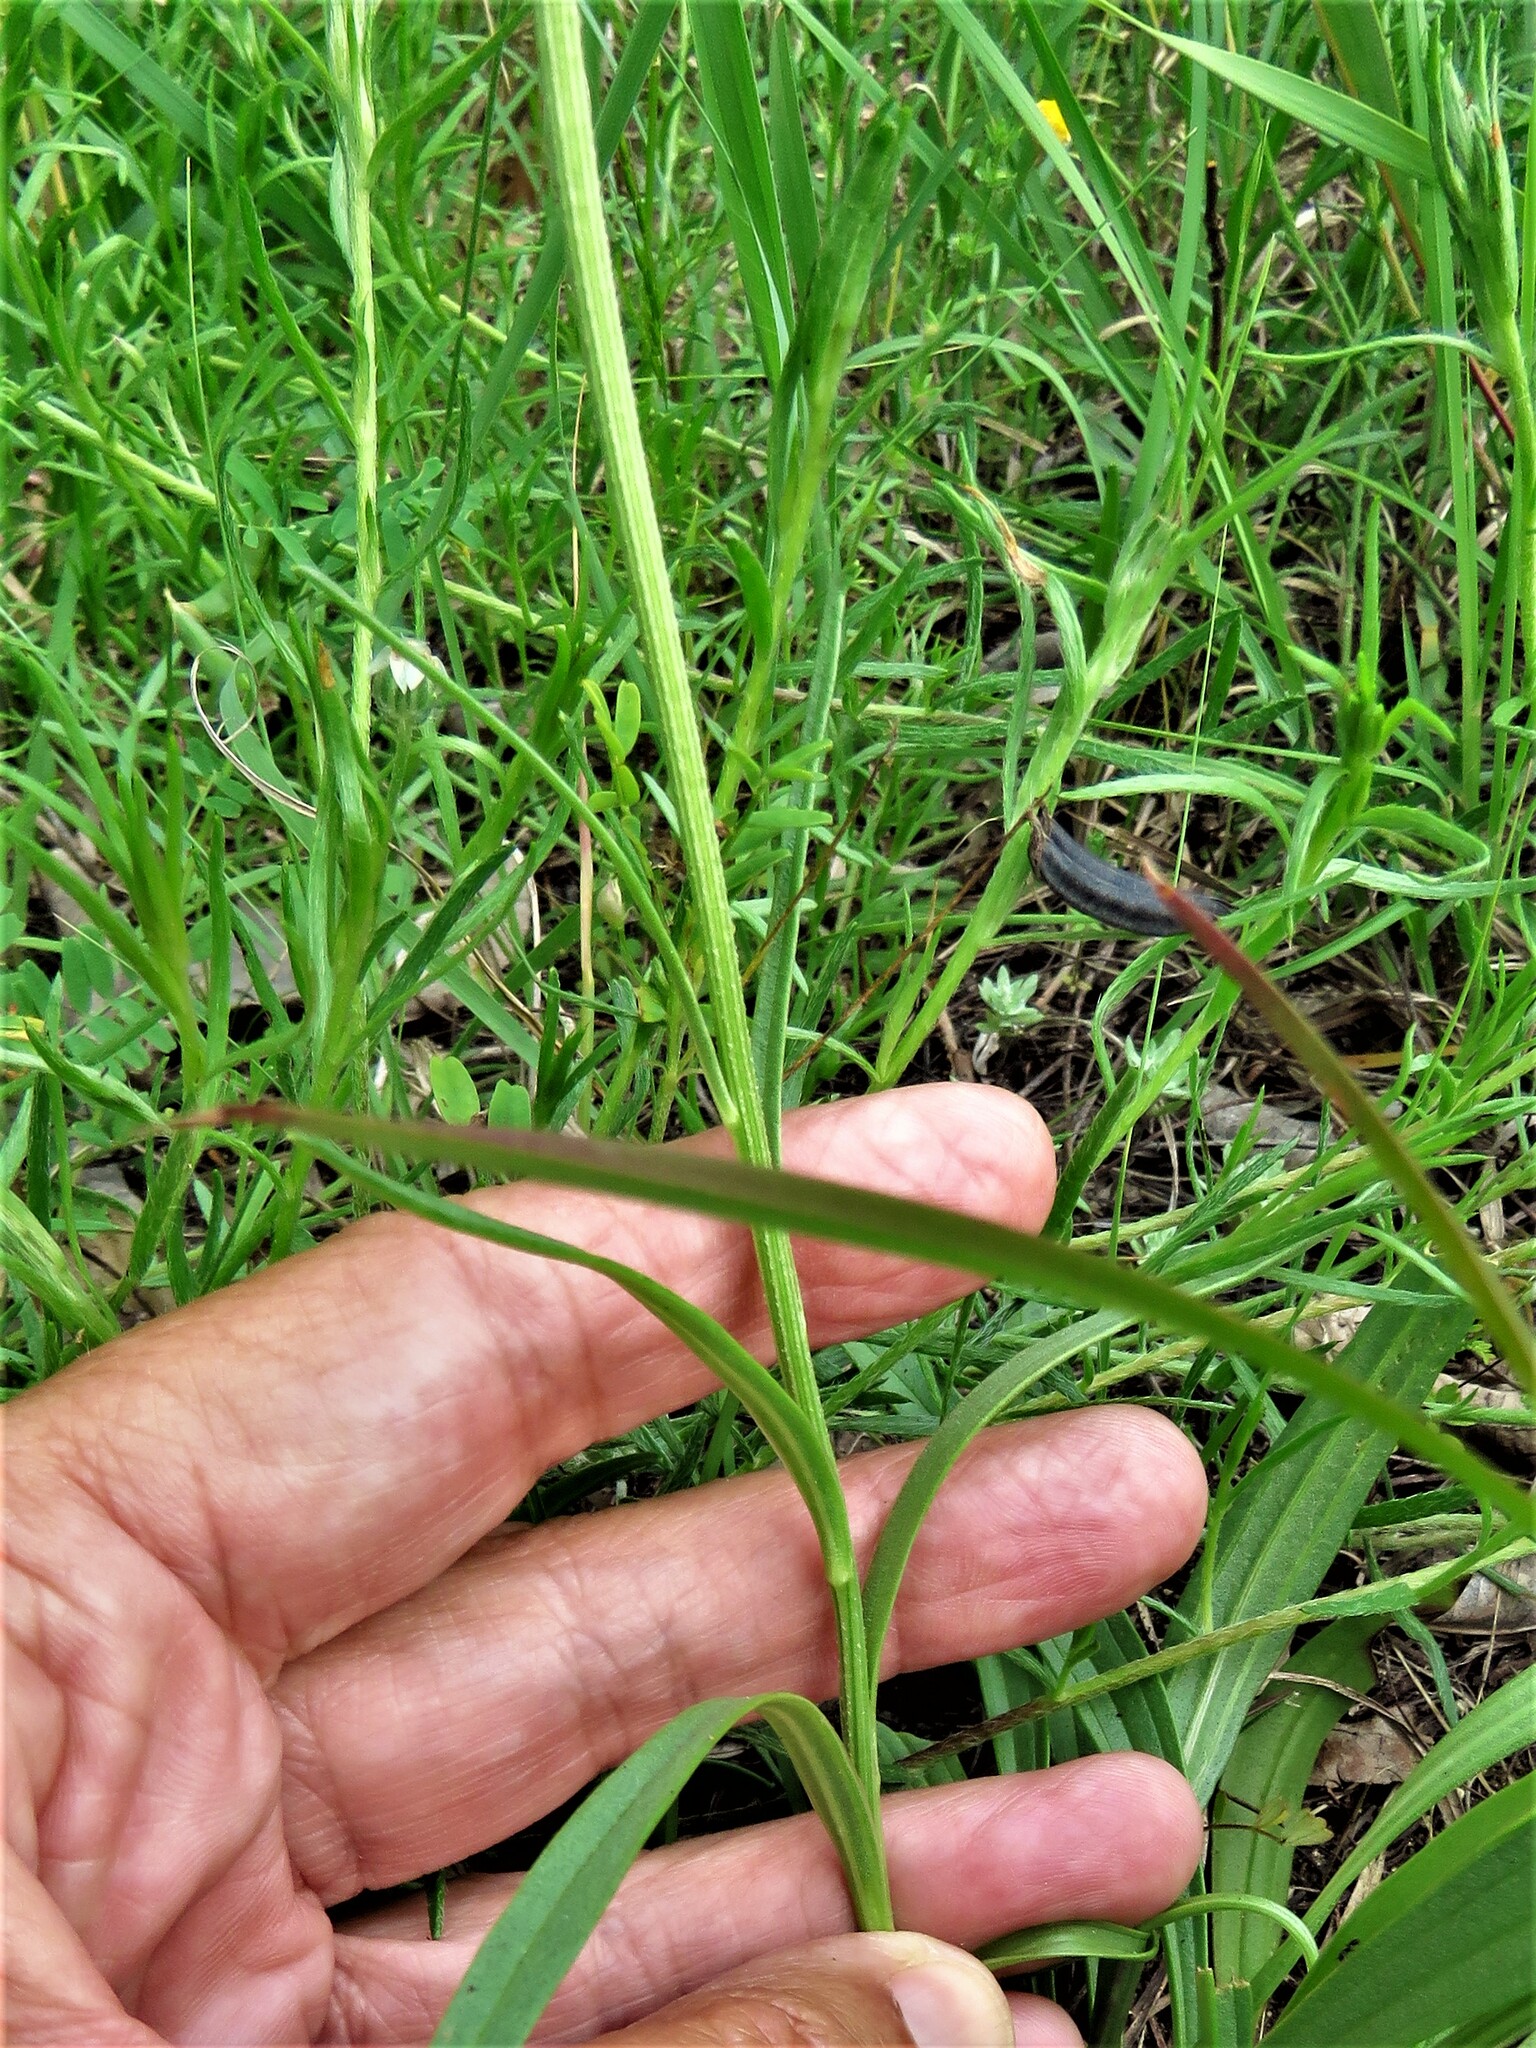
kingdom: Plantae
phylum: Tracheophyta
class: Magnoliopsida
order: Asterales
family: Asteraceae
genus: Marshallia
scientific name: Marshallia caespitosa
